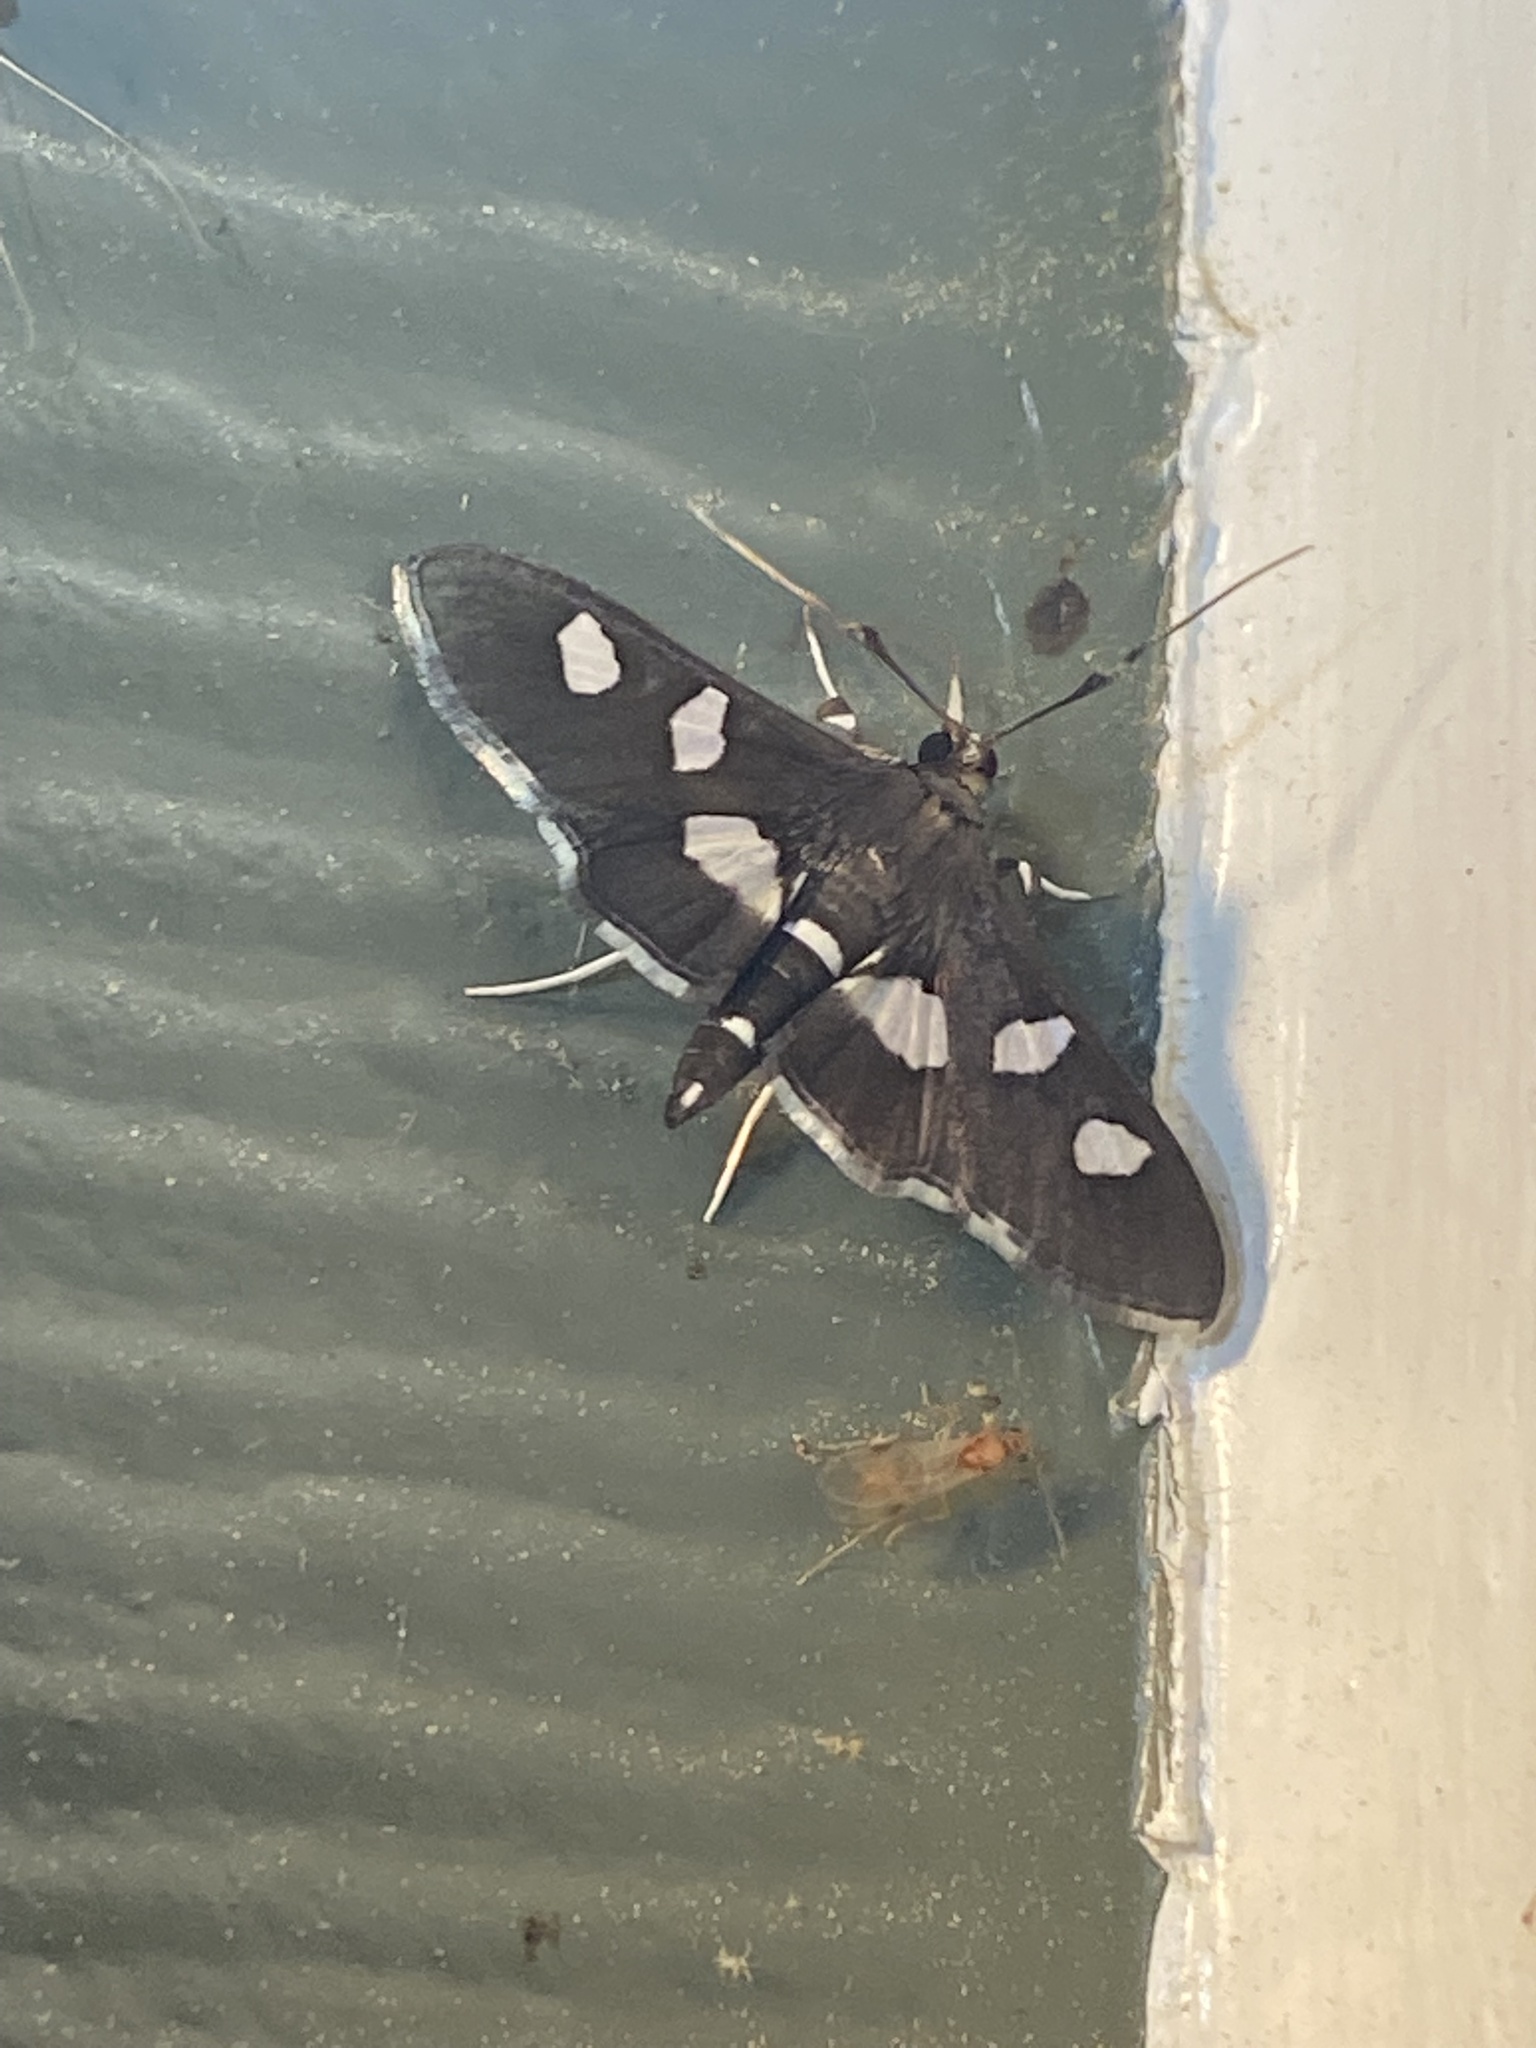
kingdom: Animalia
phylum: Arthropoda
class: Insecta
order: Lepidoptera
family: Crambidae
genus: Desmia
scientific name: Desmia
